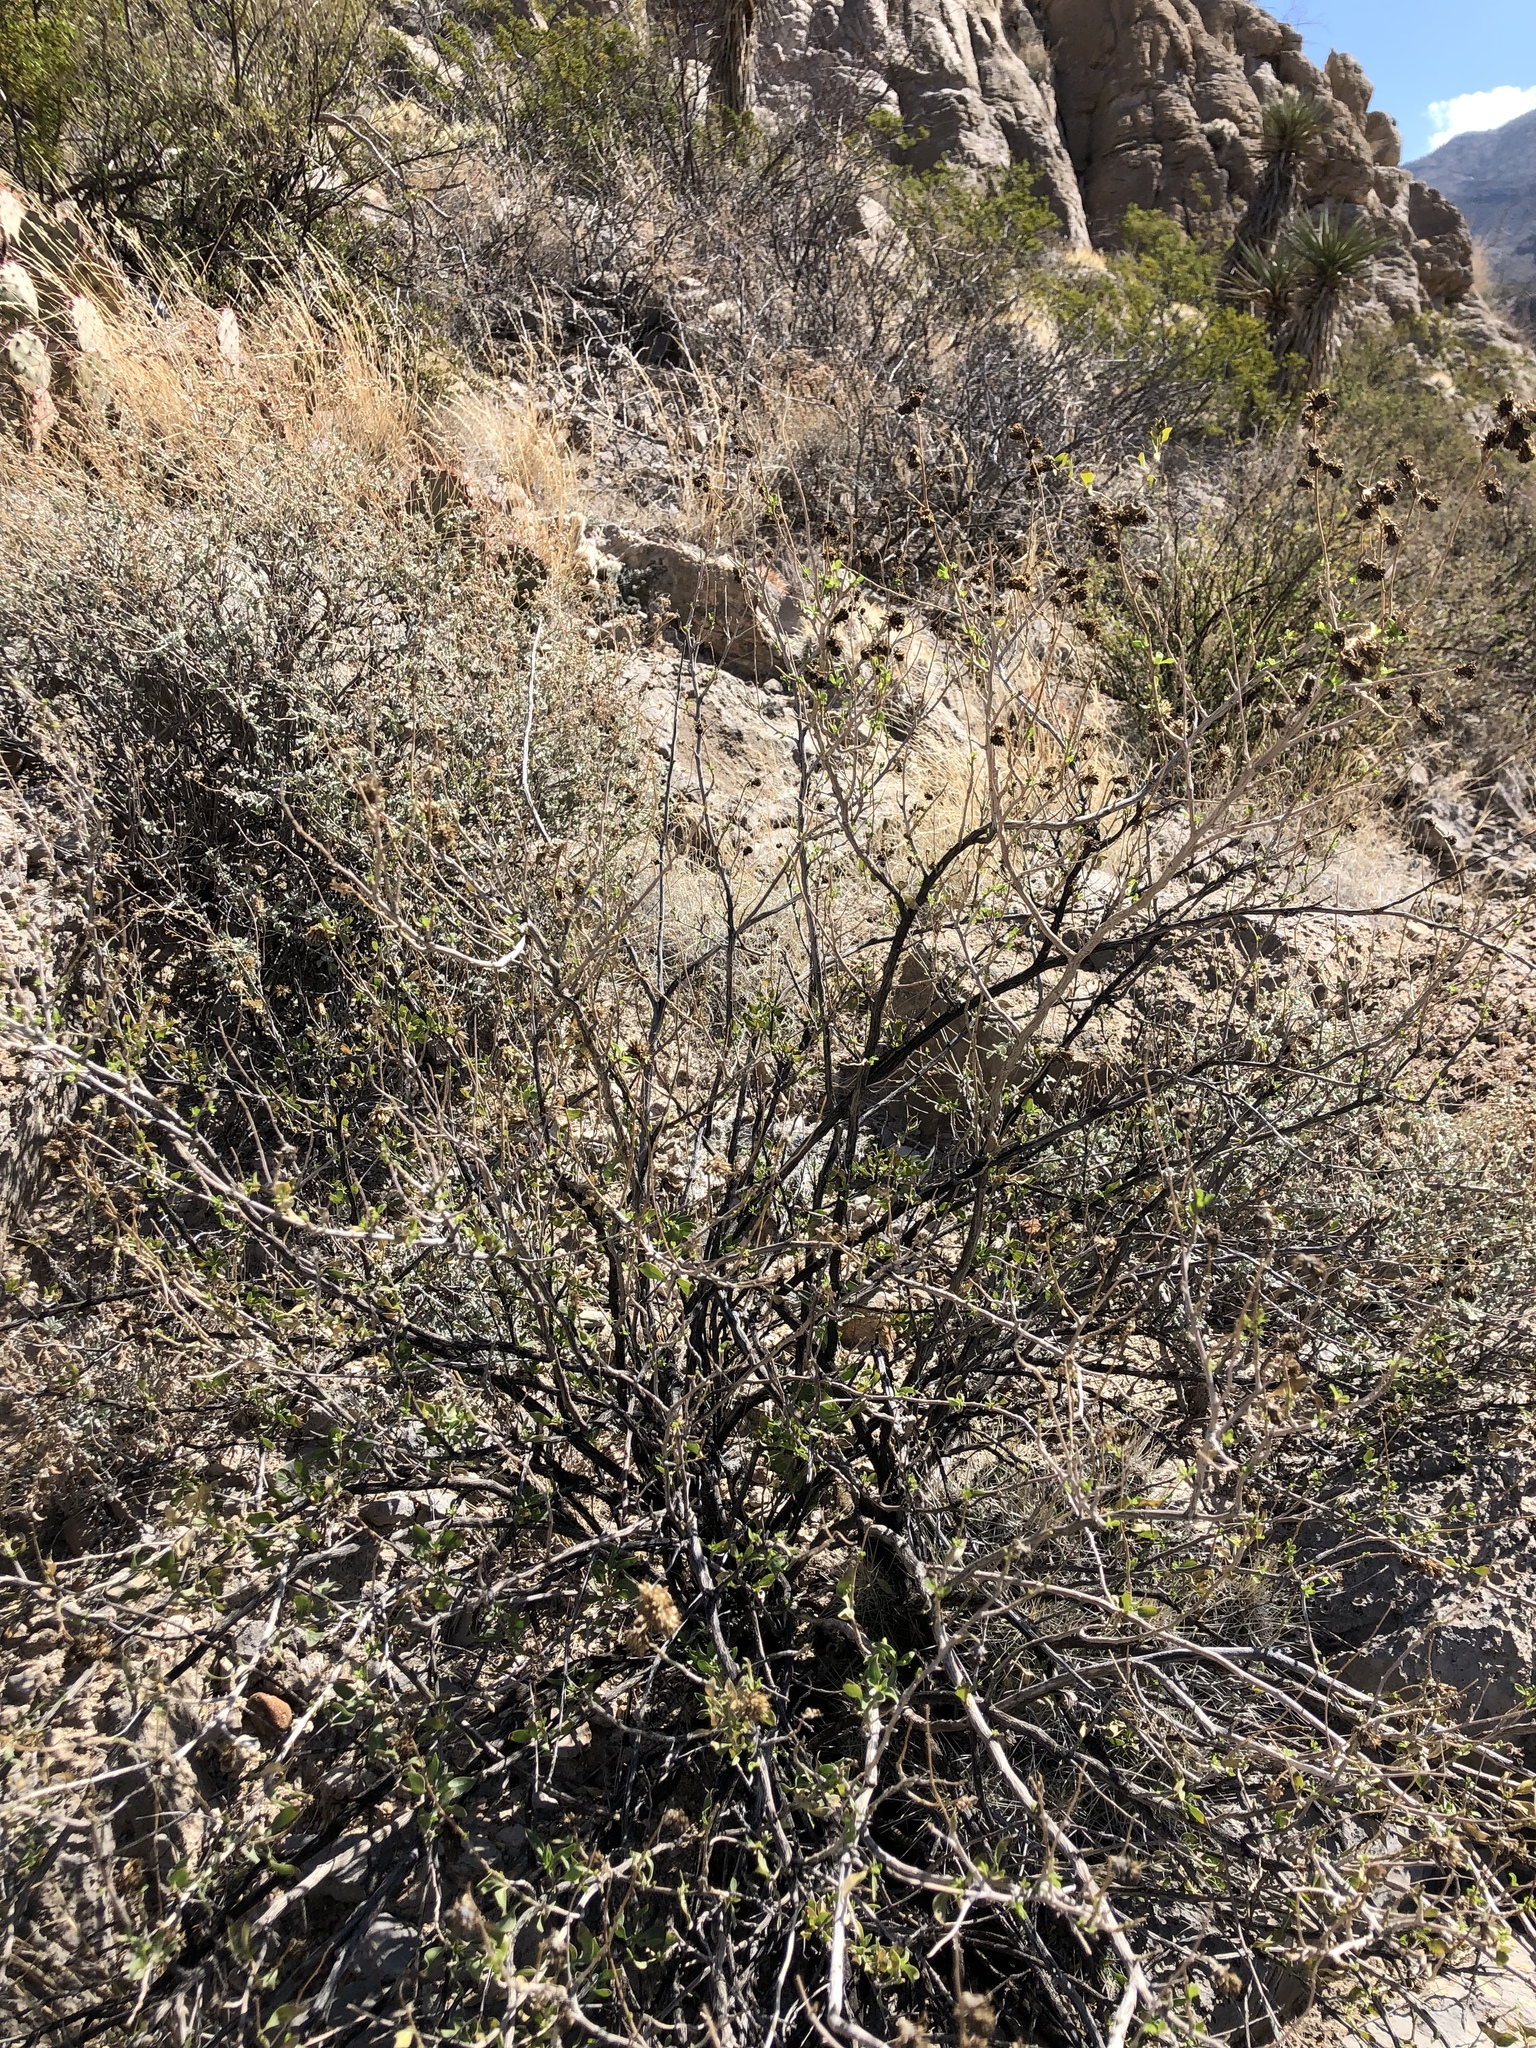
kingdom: Plantae
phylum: Tracheophyta
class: Magnoliopsida
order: Zygophyllales
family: Zygophyllaceae
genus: Larrea
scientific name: Larrea tridentata
